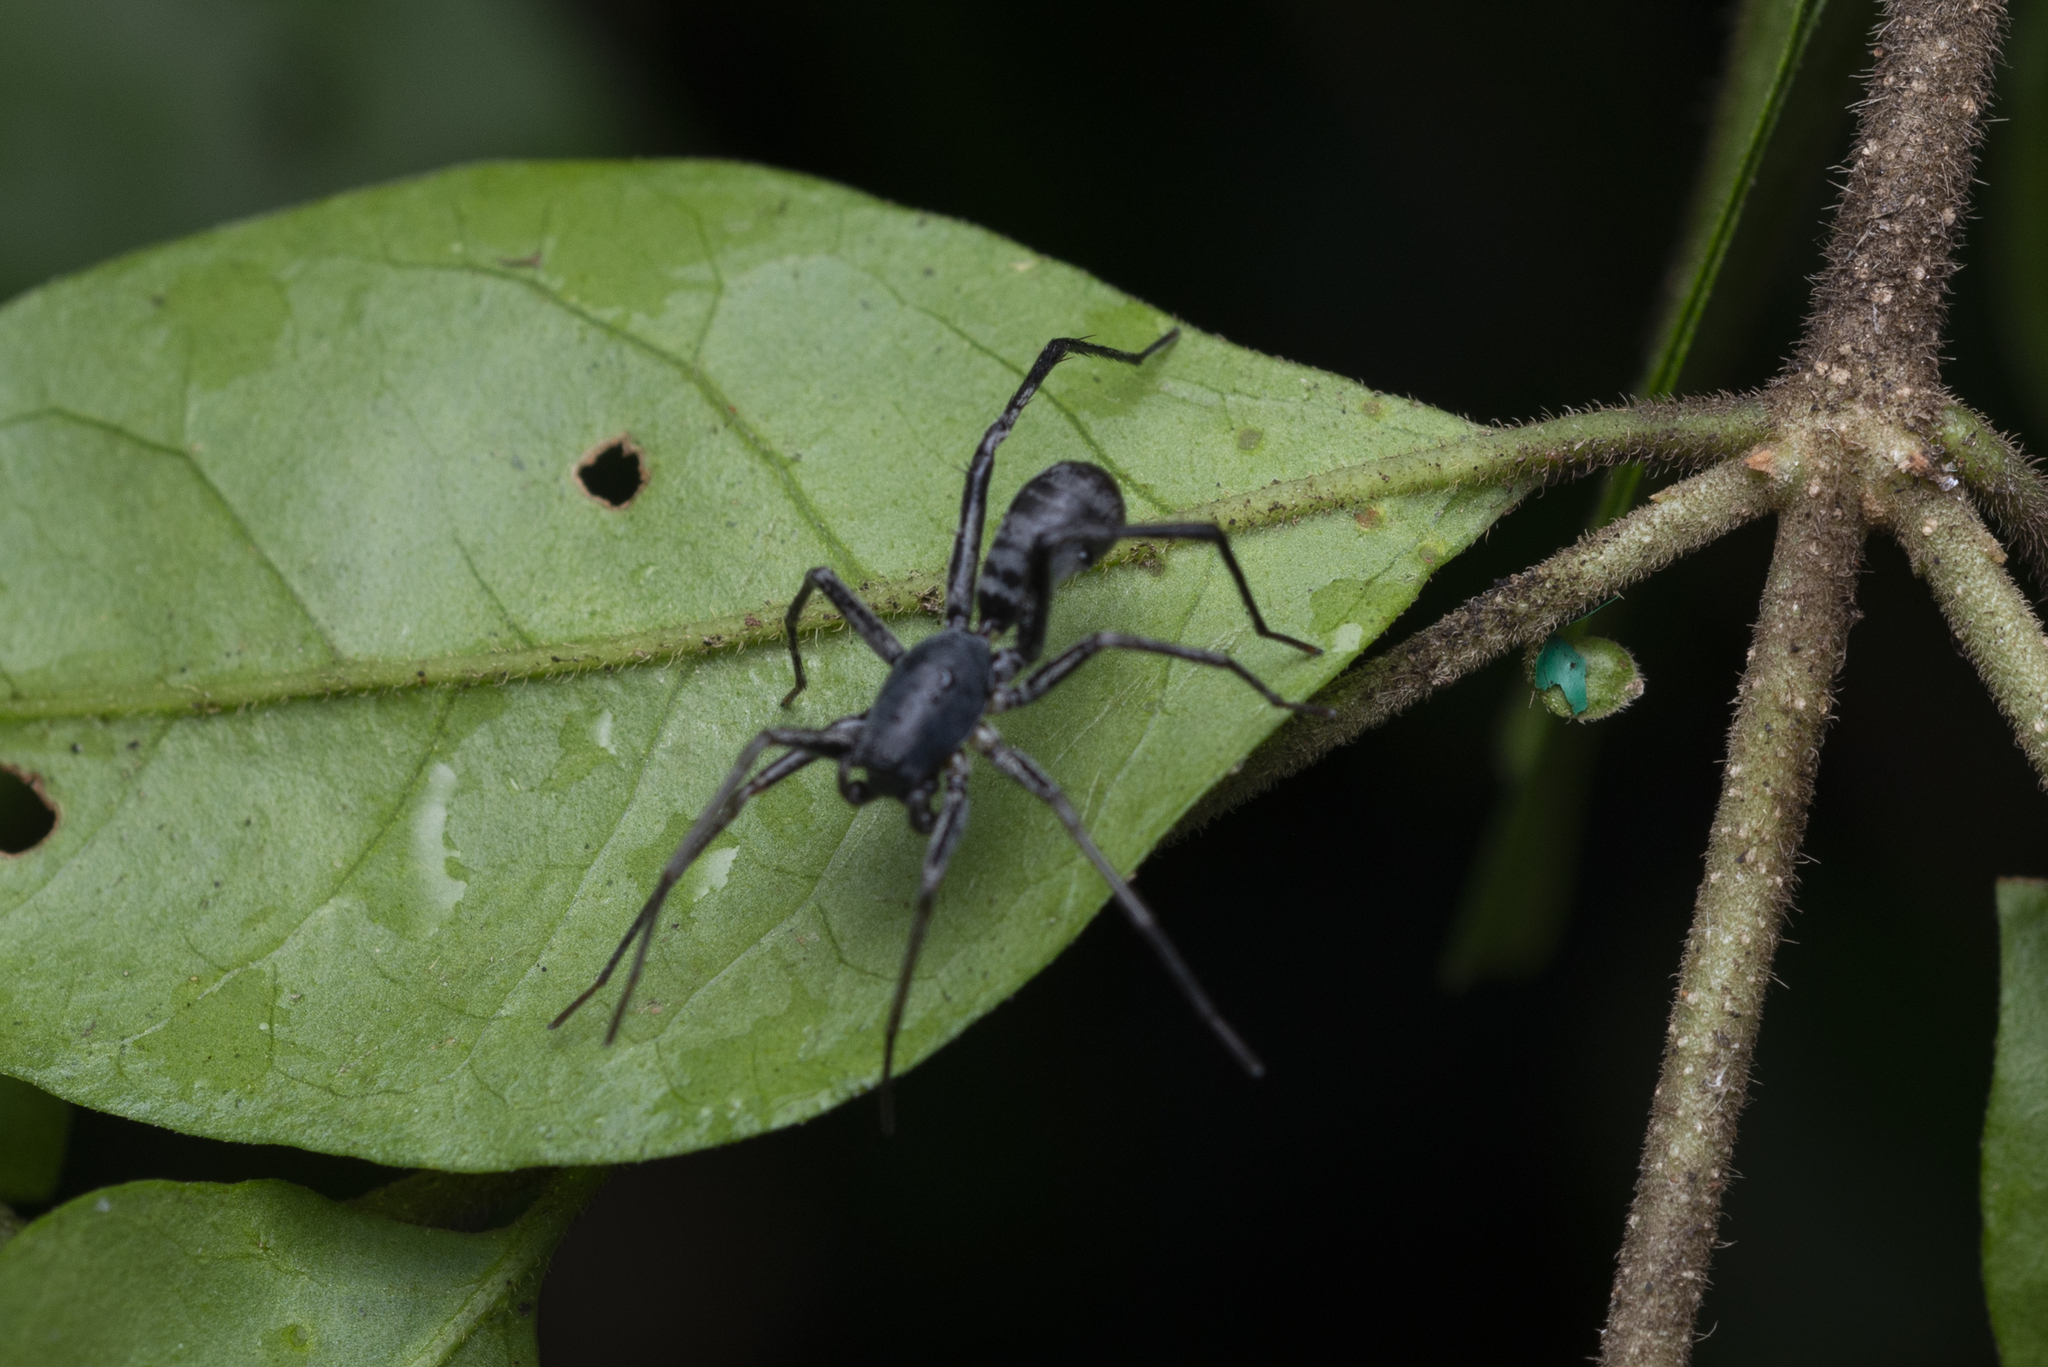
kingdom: Animalia
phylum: Arthropoda
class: Arachnida
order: Araneae
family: Corinnidae
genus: Corinnomma
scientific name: Corinnomma severum
